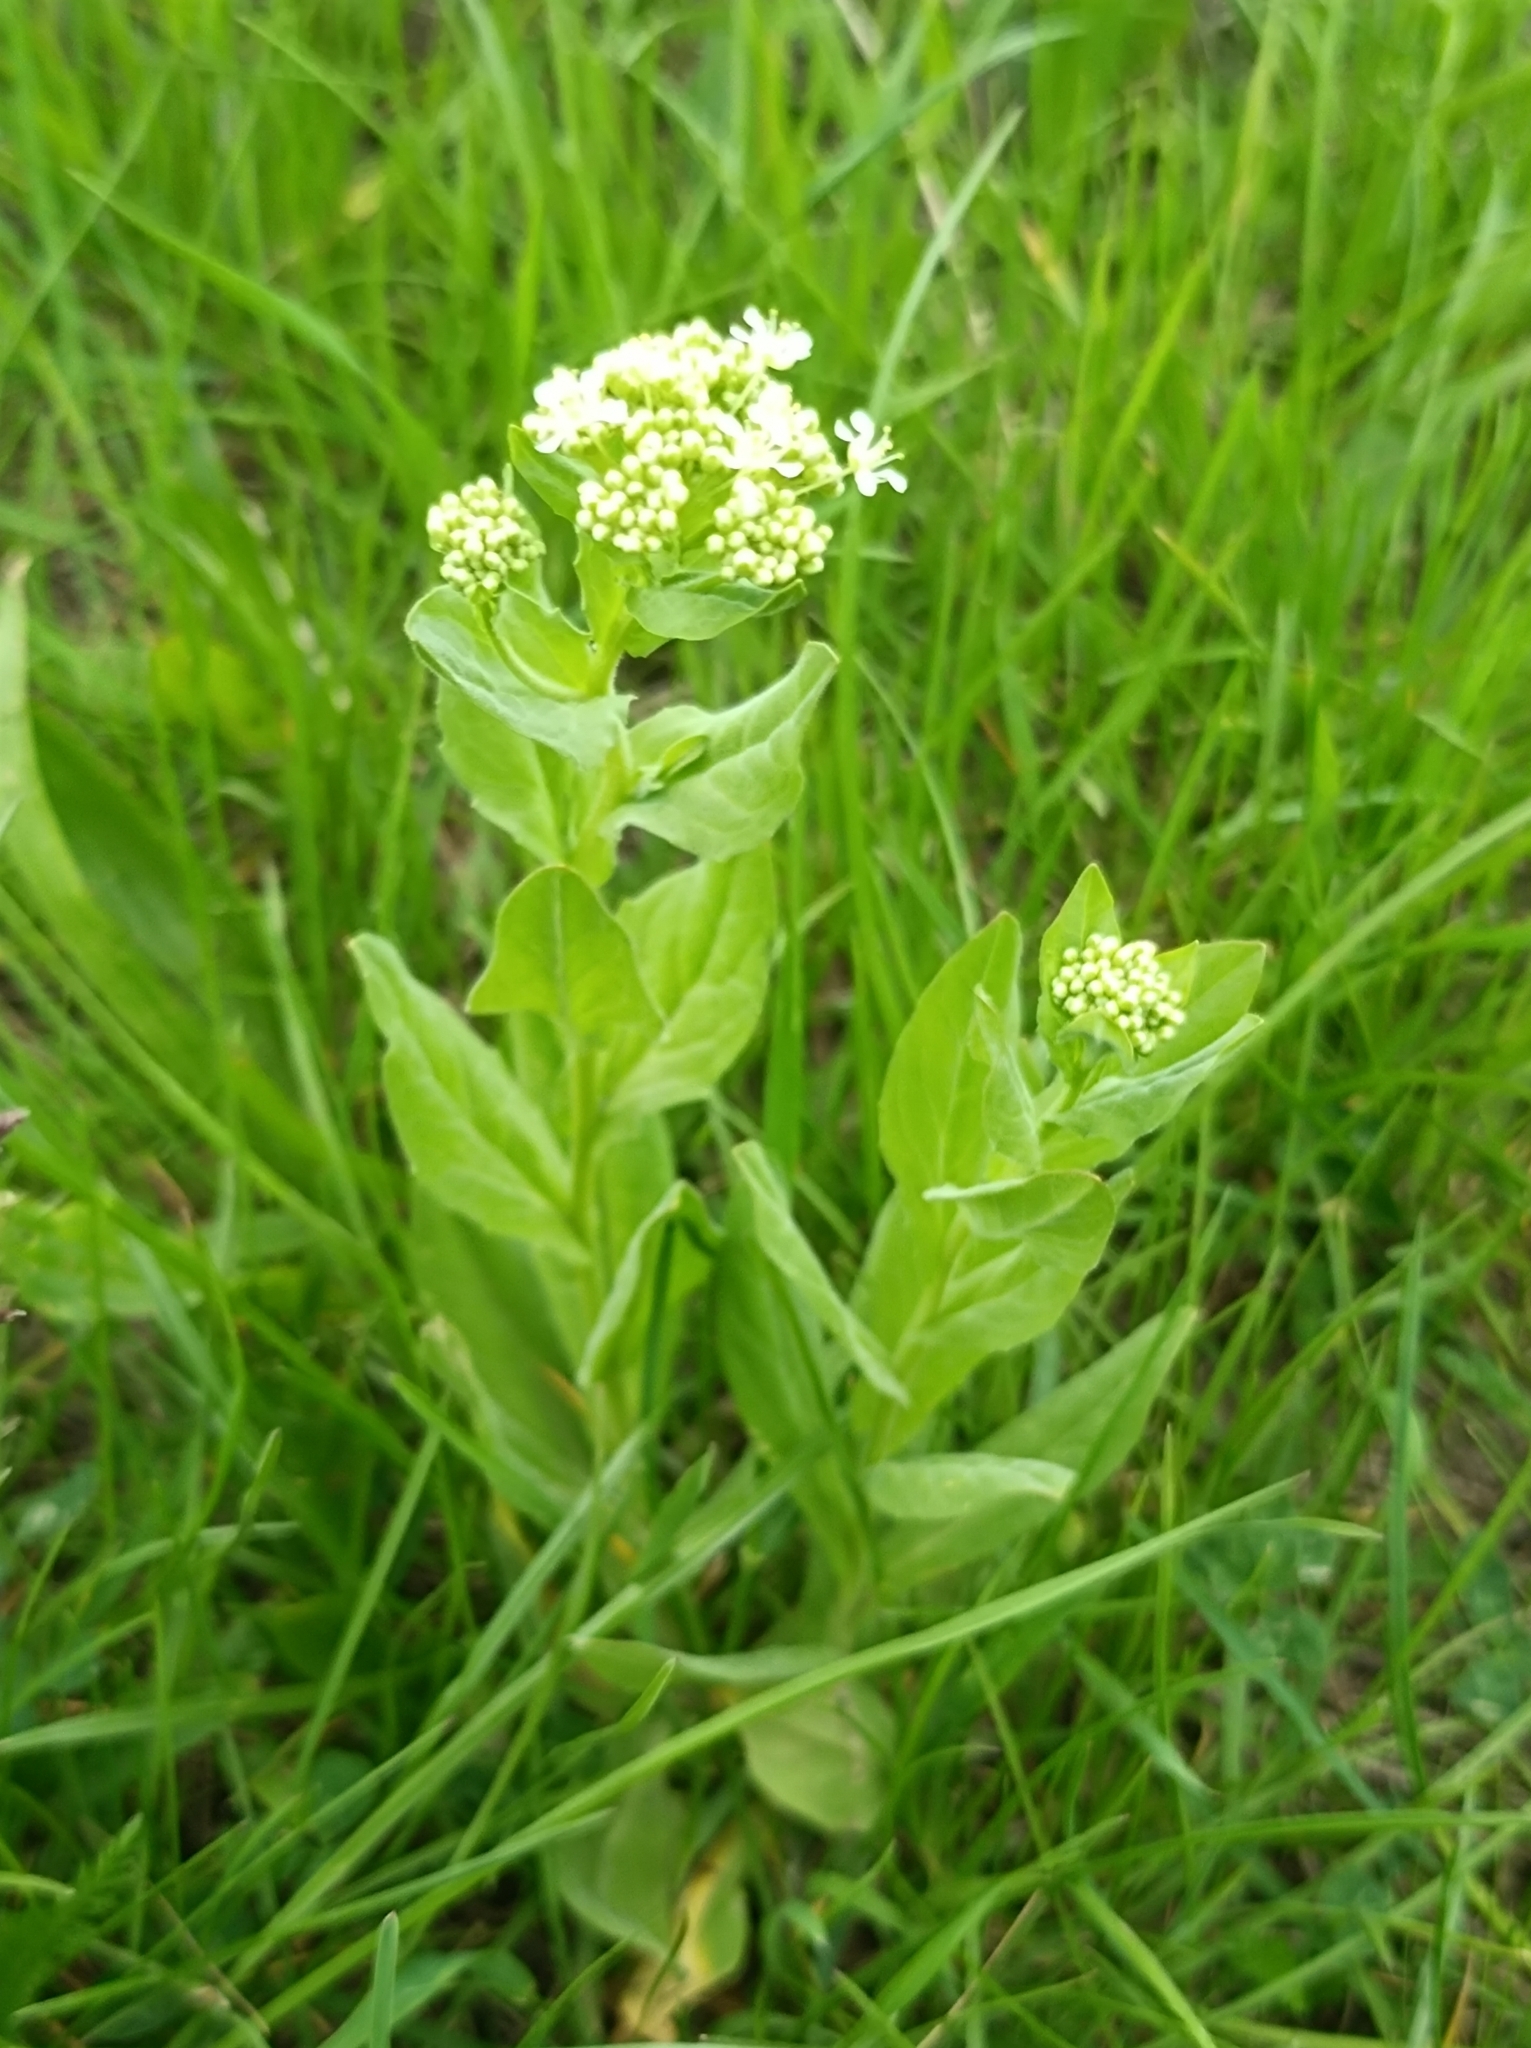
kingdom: Plantae
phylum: Tracheophyta
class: Magnoliopsida
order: Brassicales
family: Brassicaceae
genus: Lepidium
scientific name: Lepidium draba
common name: Hoary cress
